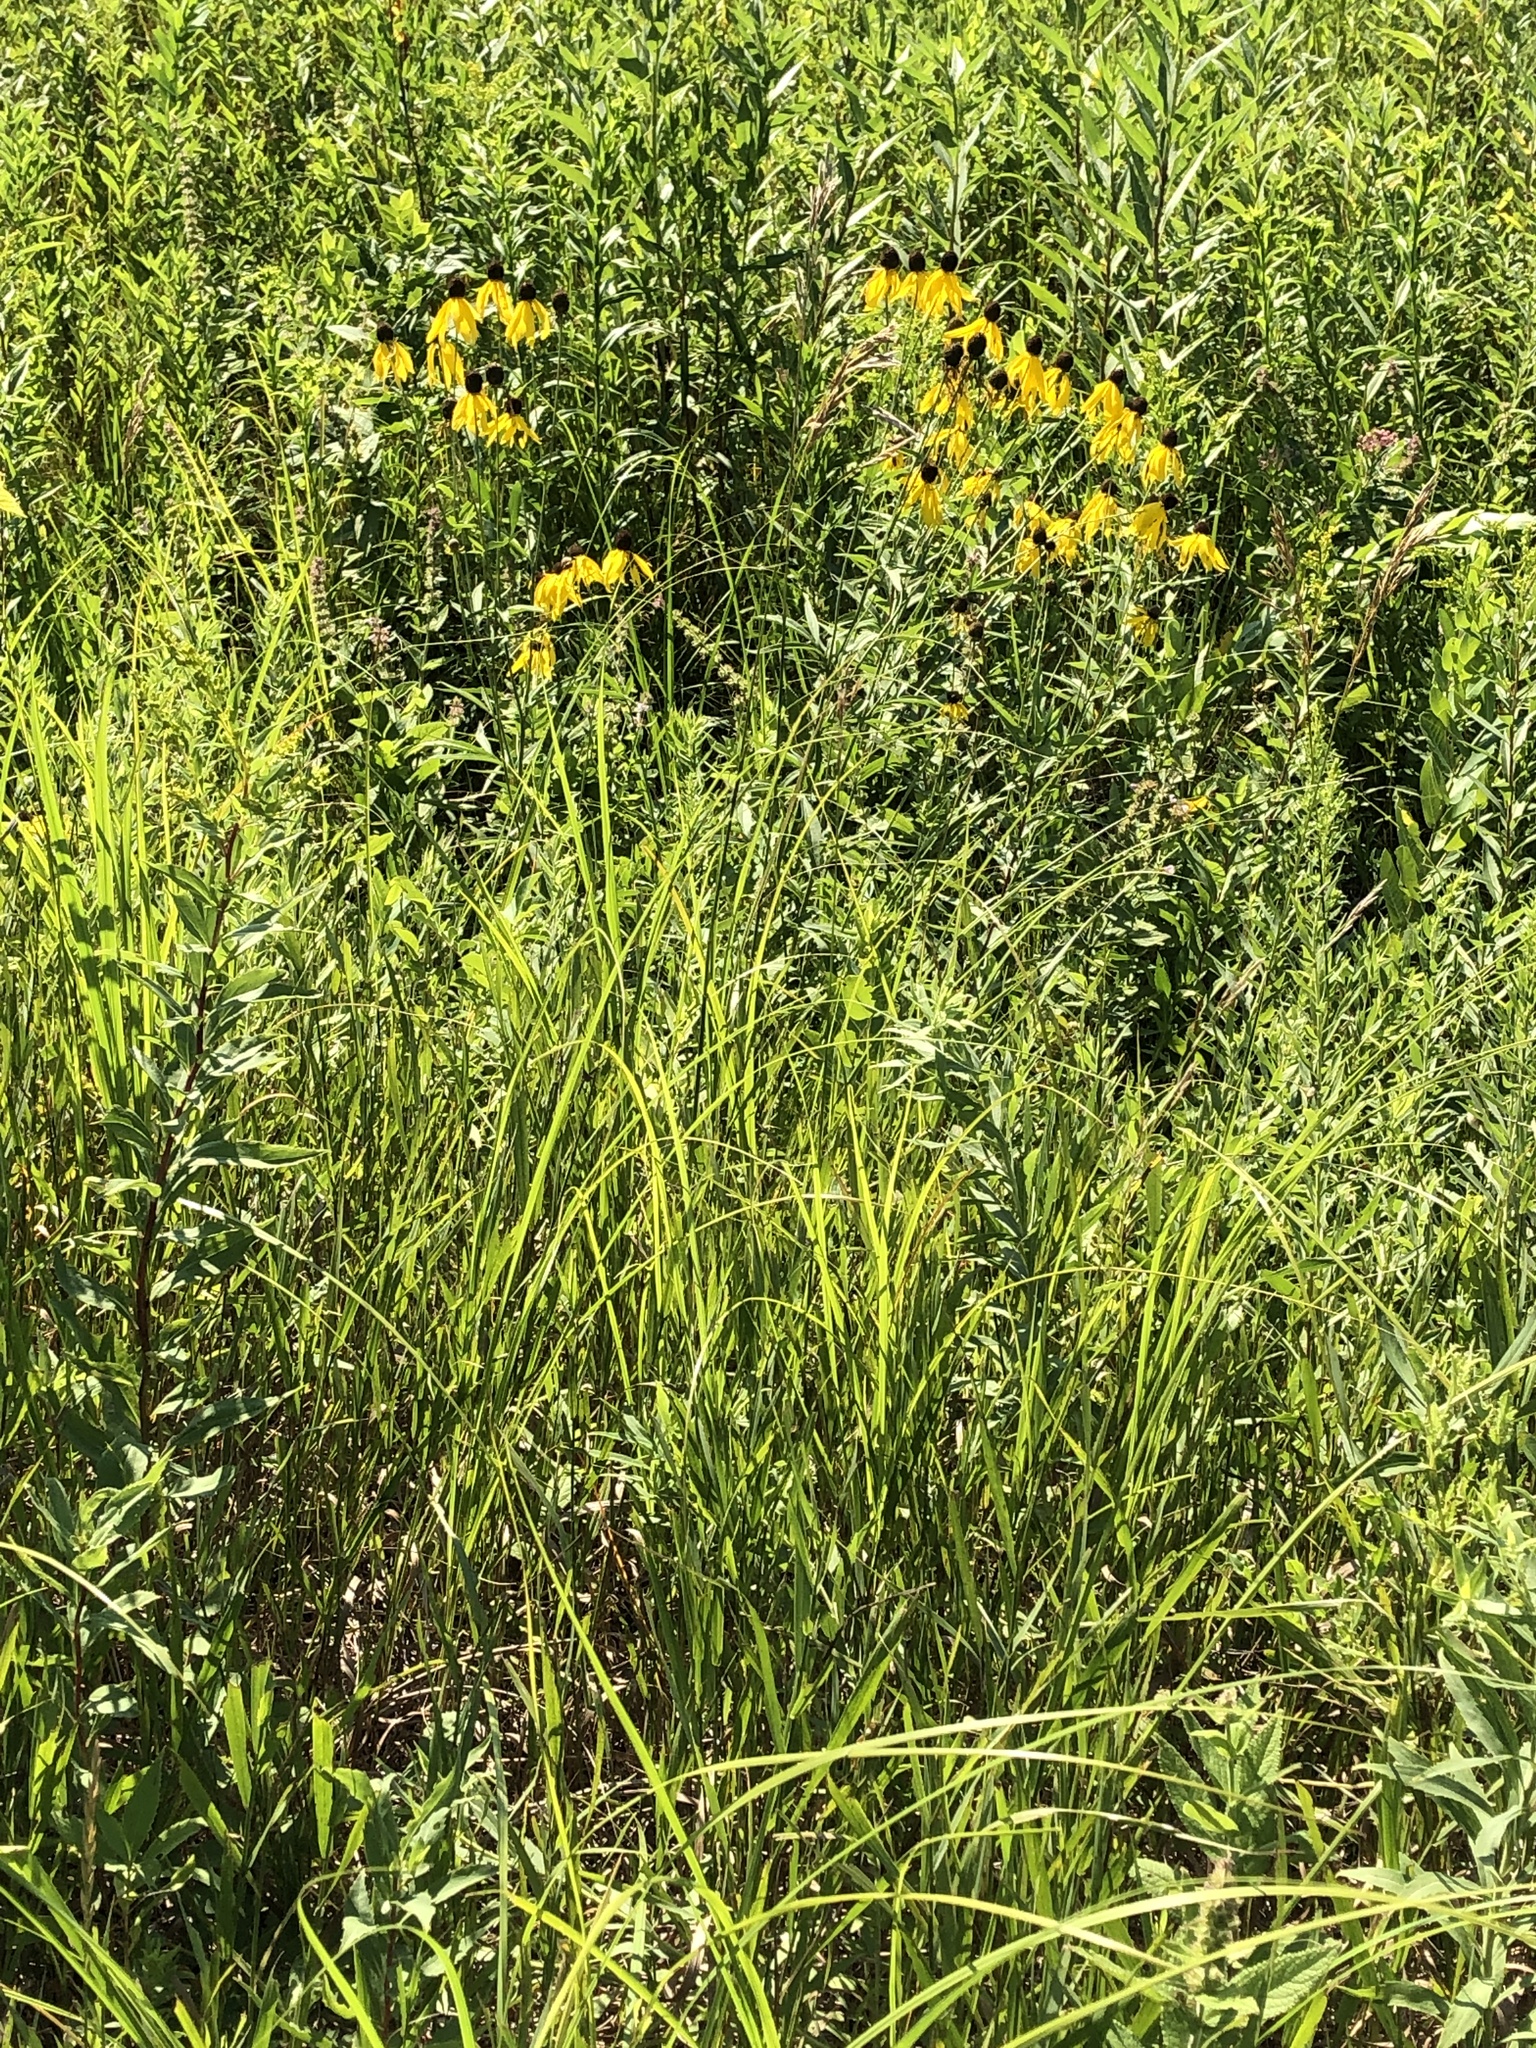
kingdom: Plantae
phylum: Tracheophyta
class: Magnoliopsida
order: Asterales
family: Asteraceae
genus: Ratibida
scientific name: Ratibida pinnata
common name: Drooping prairie-coneflower
